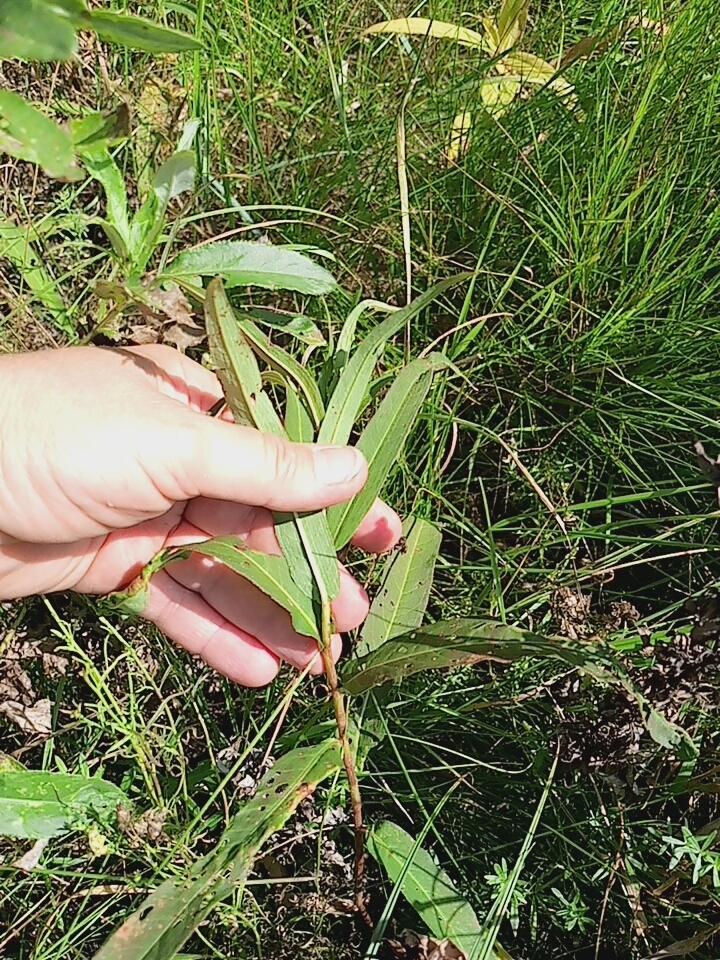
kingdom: Plantae
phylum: Tracheophyta
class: Magnoliopsida
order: Caryophyllales
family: Polygonaceae
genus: Persicaria
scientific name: Persicaria amphibia
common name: Amphibious bistort
